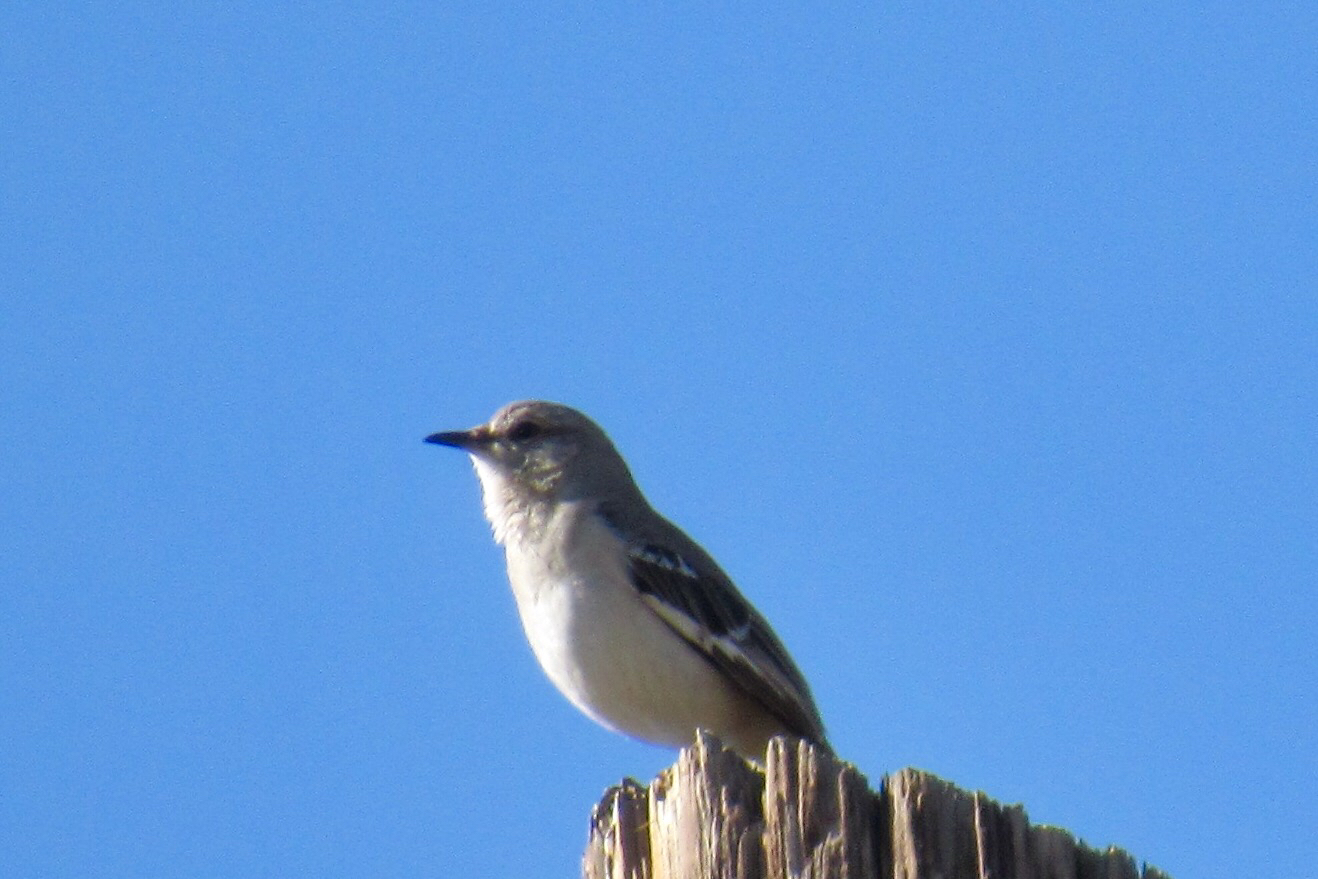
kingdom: Animalia
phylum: Chordata
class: Aves
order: Passeriformes
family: Mimidae
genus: Mimus
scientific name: Mimus polyglottos
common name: Northern mockingbird
